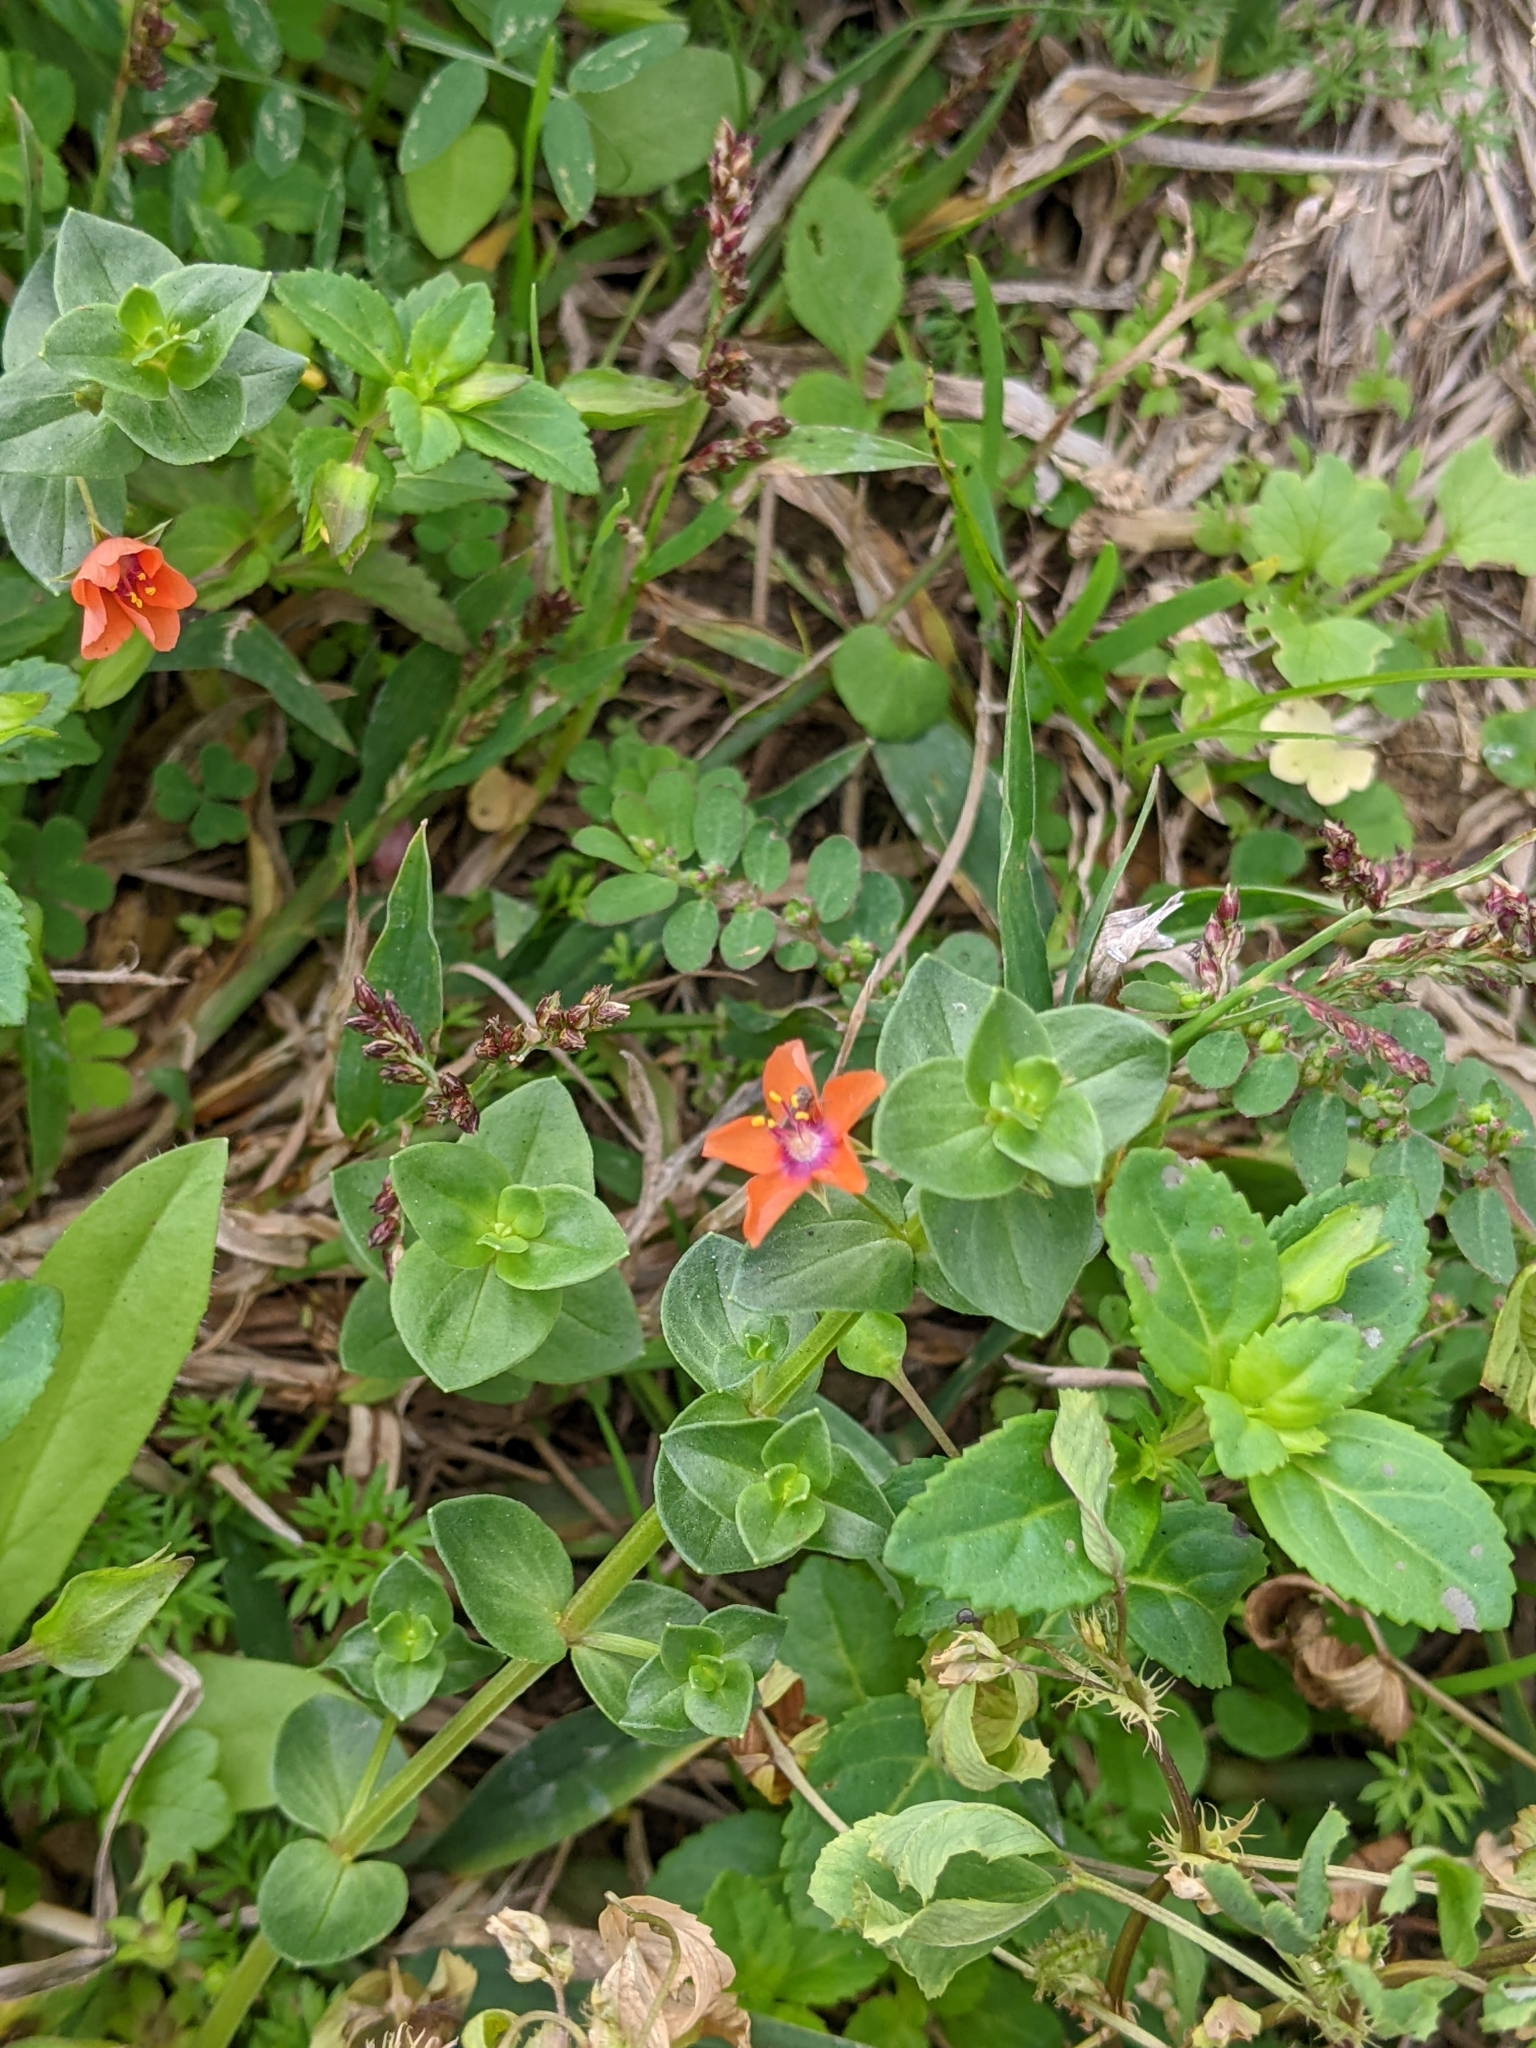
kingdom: Plantae
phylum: Tracheophyta
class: Magnoliopsida
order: Ericales
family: Primulaceae
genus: Lysimachia
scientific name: Lysimachia arvensis
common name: Scarlet pimpernel
